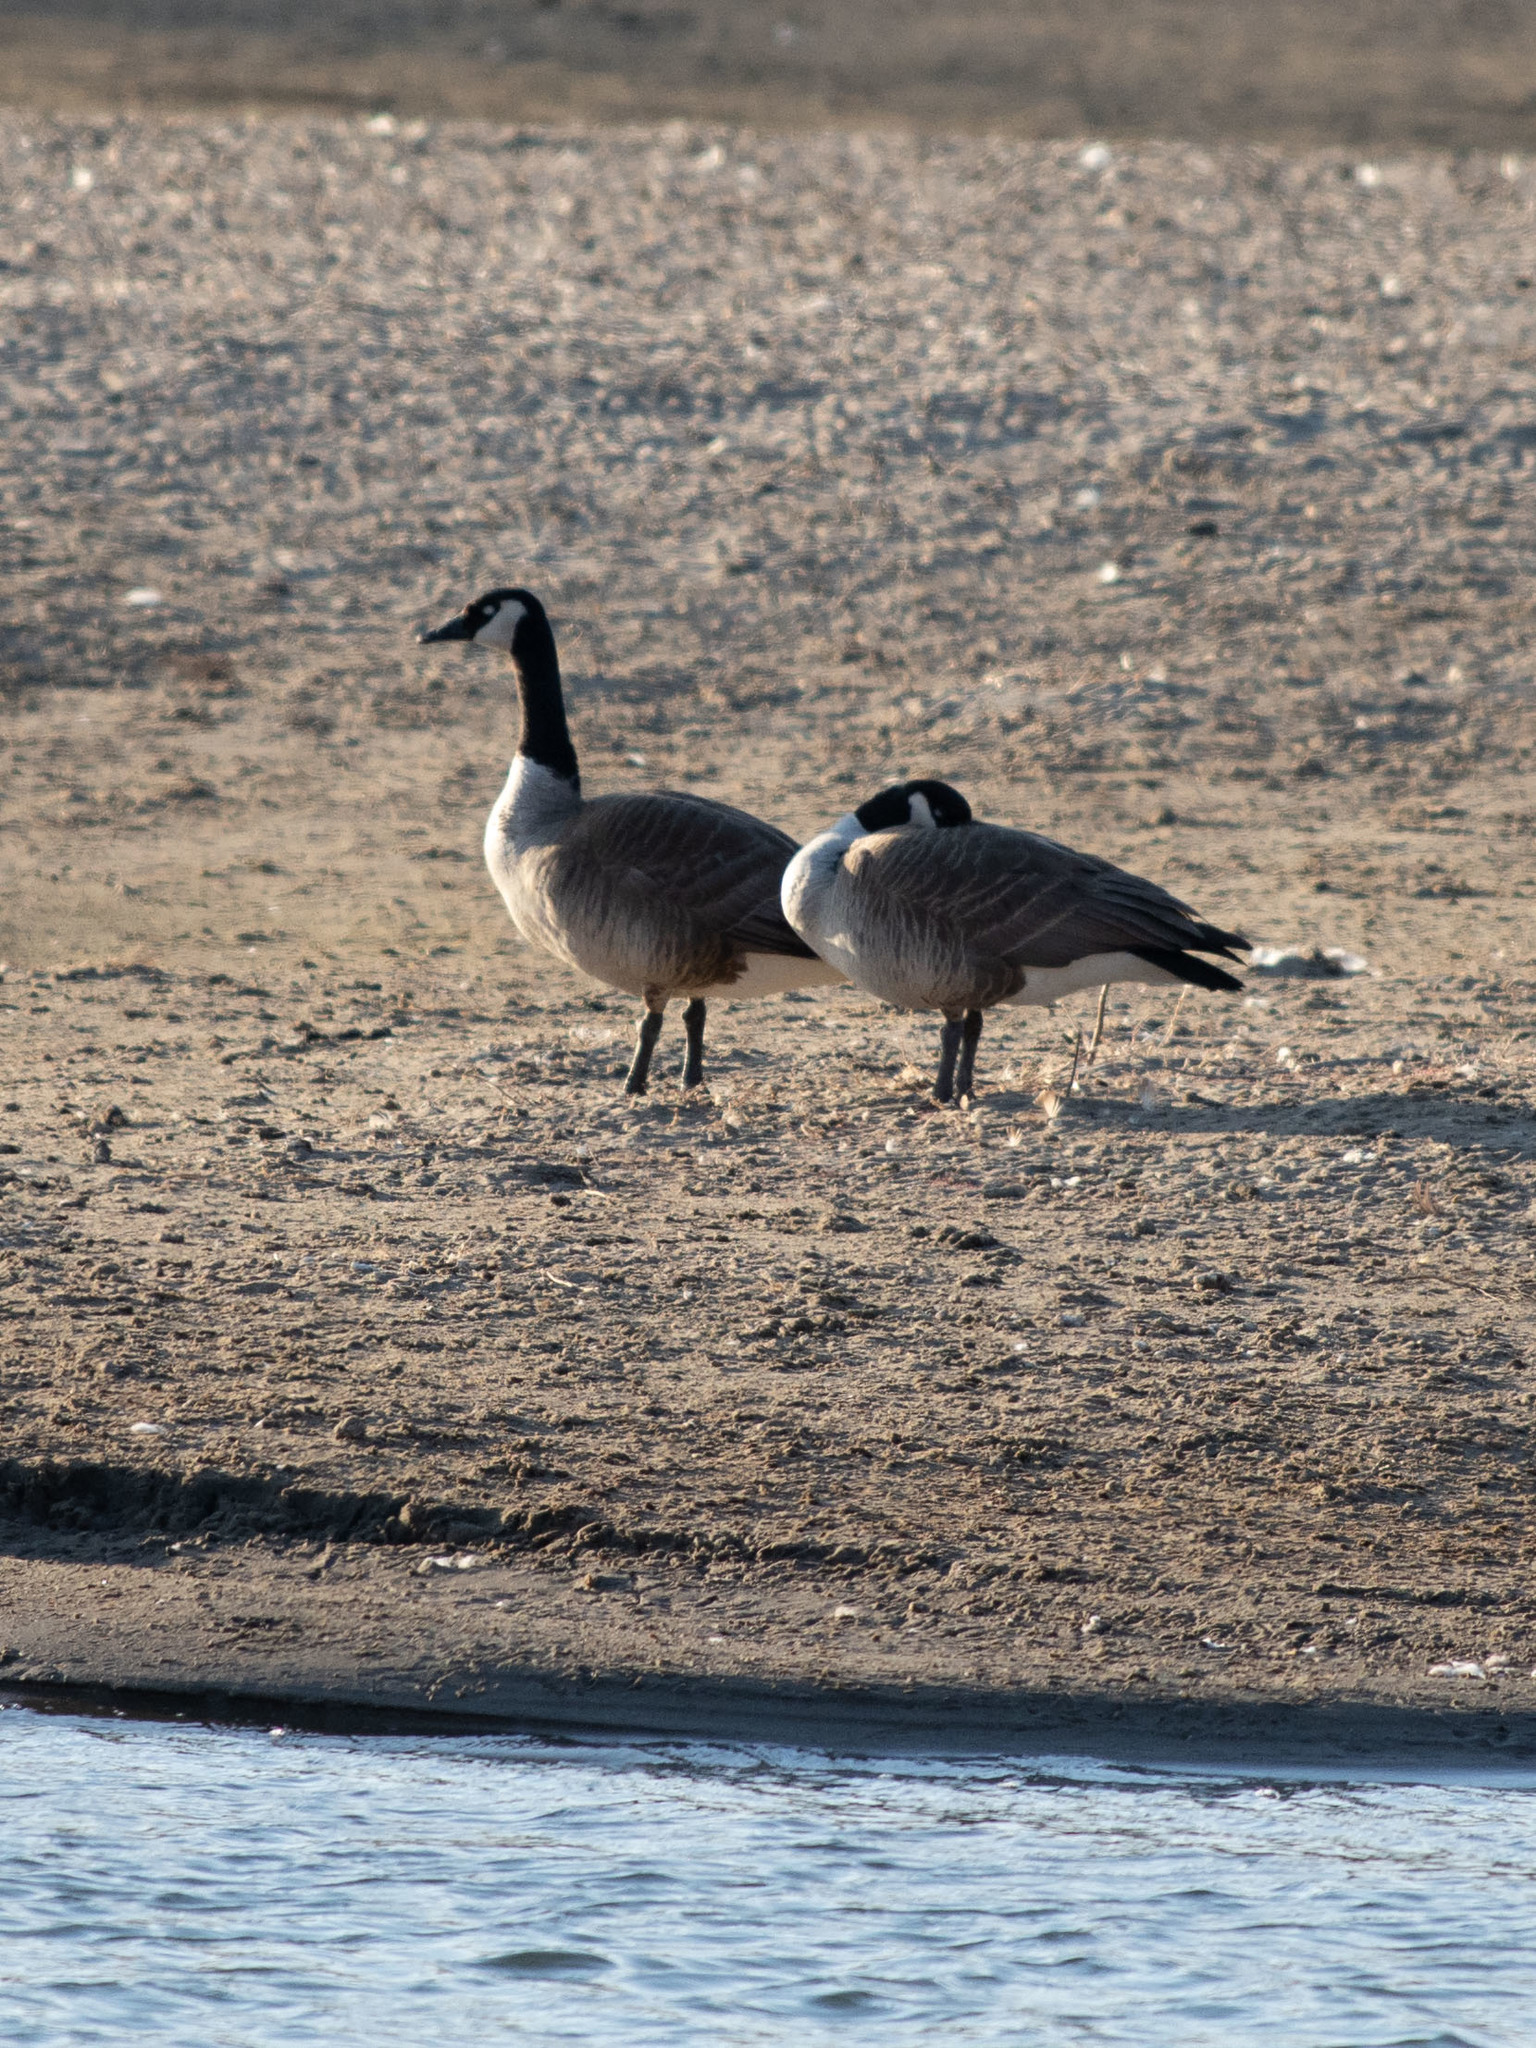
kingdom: Animalia
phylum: Chordata
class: Aves
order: Anseriformes
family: Anatidae
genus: Branta
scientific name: Branta canadensis
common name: Canada goose
